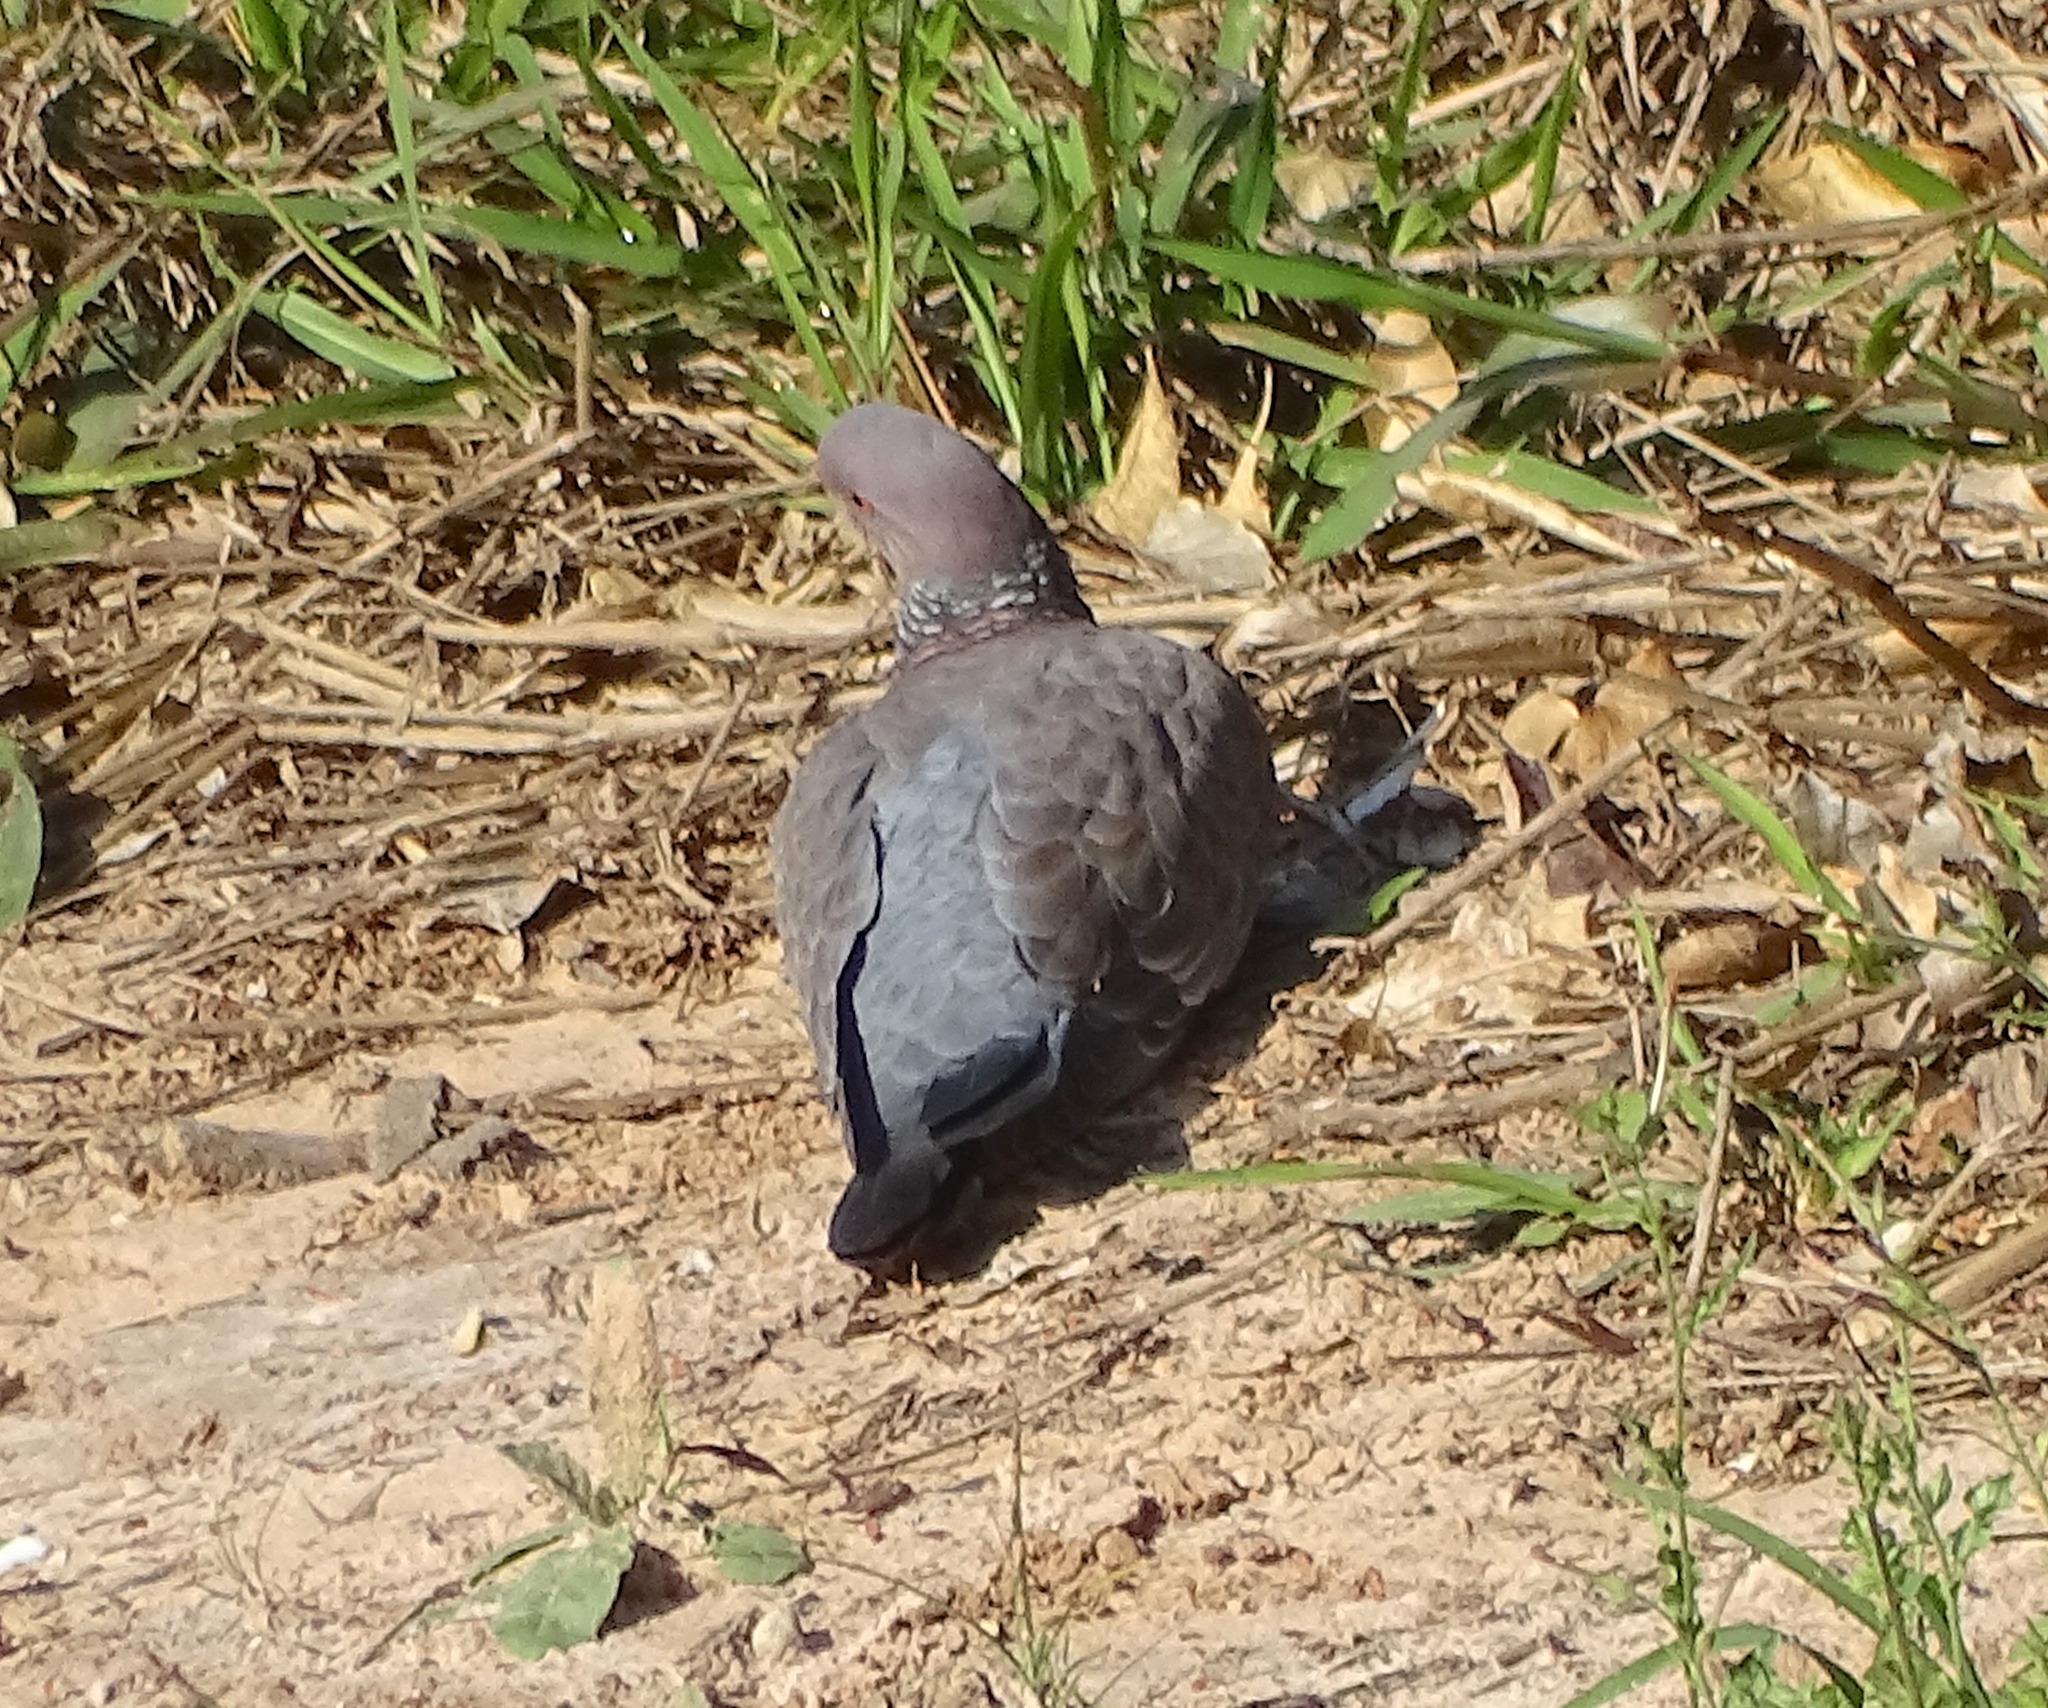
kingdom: Animalia
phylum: Chordata
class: Aves
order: Columbiformes
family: Columbidae
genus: Patagioenas
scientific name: Patagioenas picazuro
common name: Picazuro pigeon
